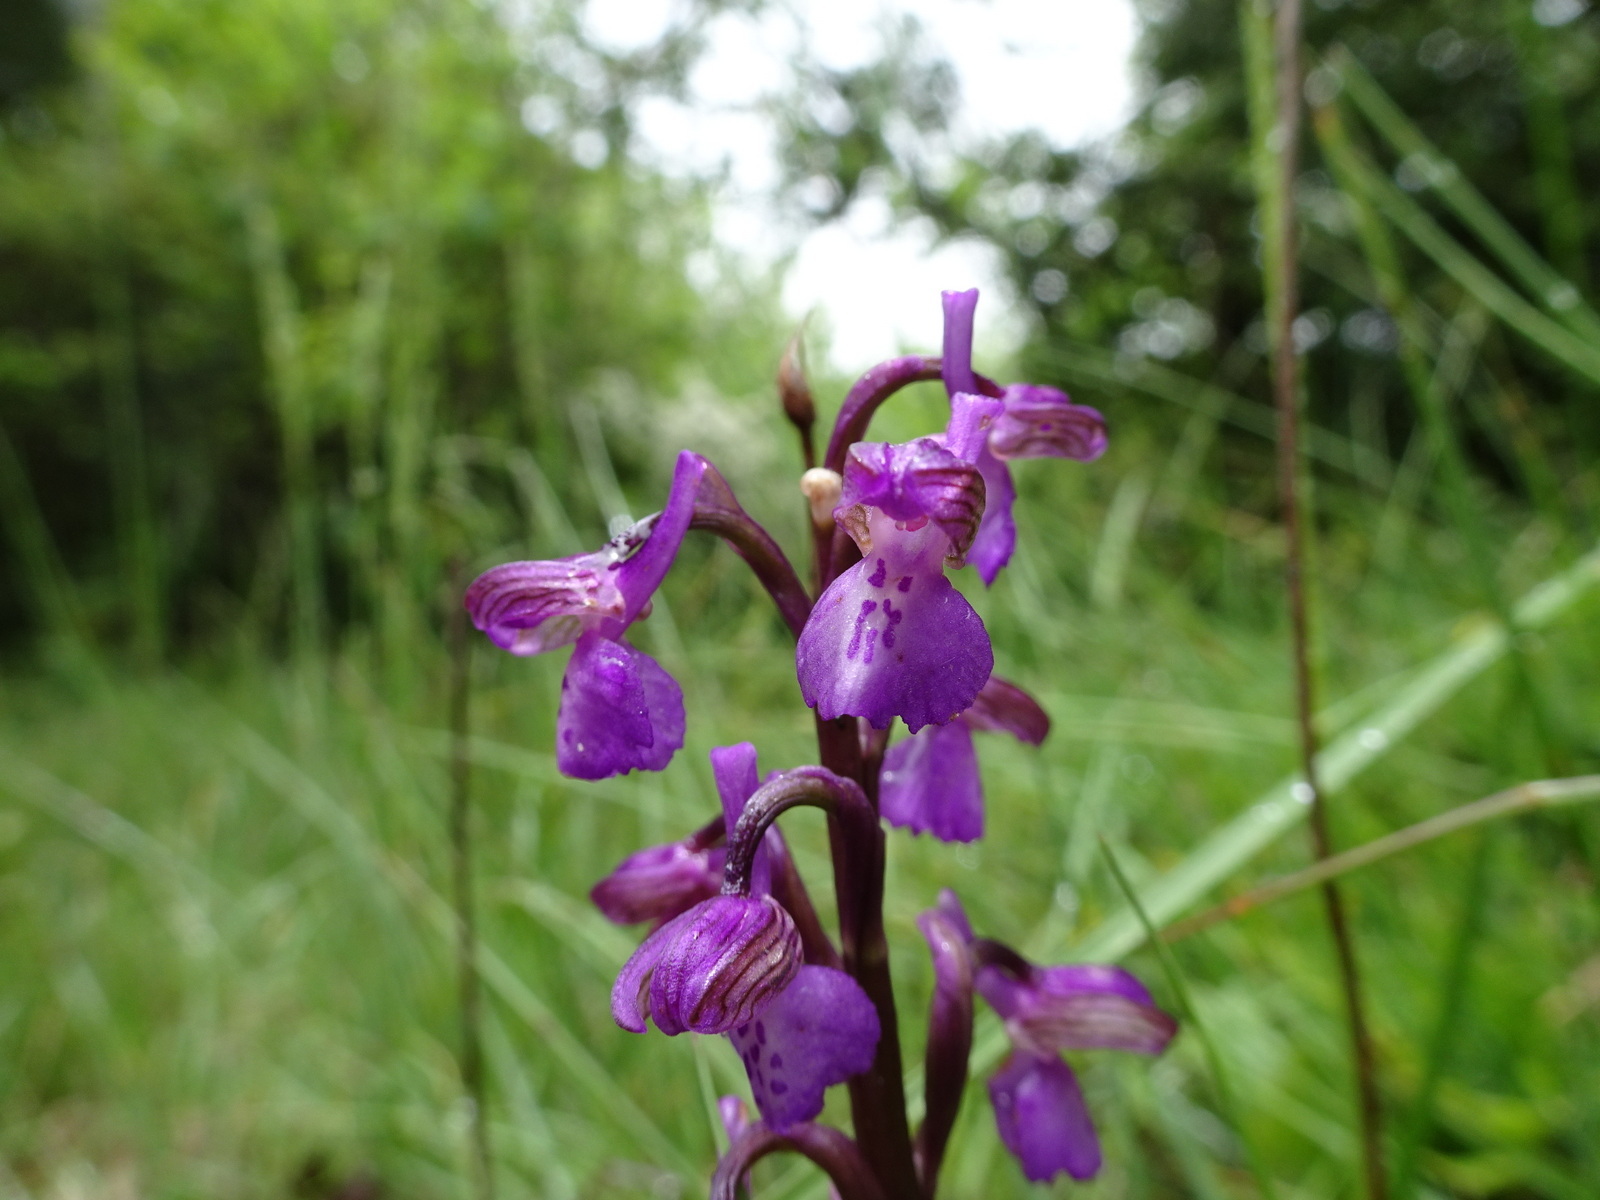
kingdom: Plantae
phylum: Tracheophyta
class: Liliopsida
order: Asparagales
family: Orchidaceae
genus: Anacamptis
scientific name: Anacamptis morio
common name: Green-winged orchid
